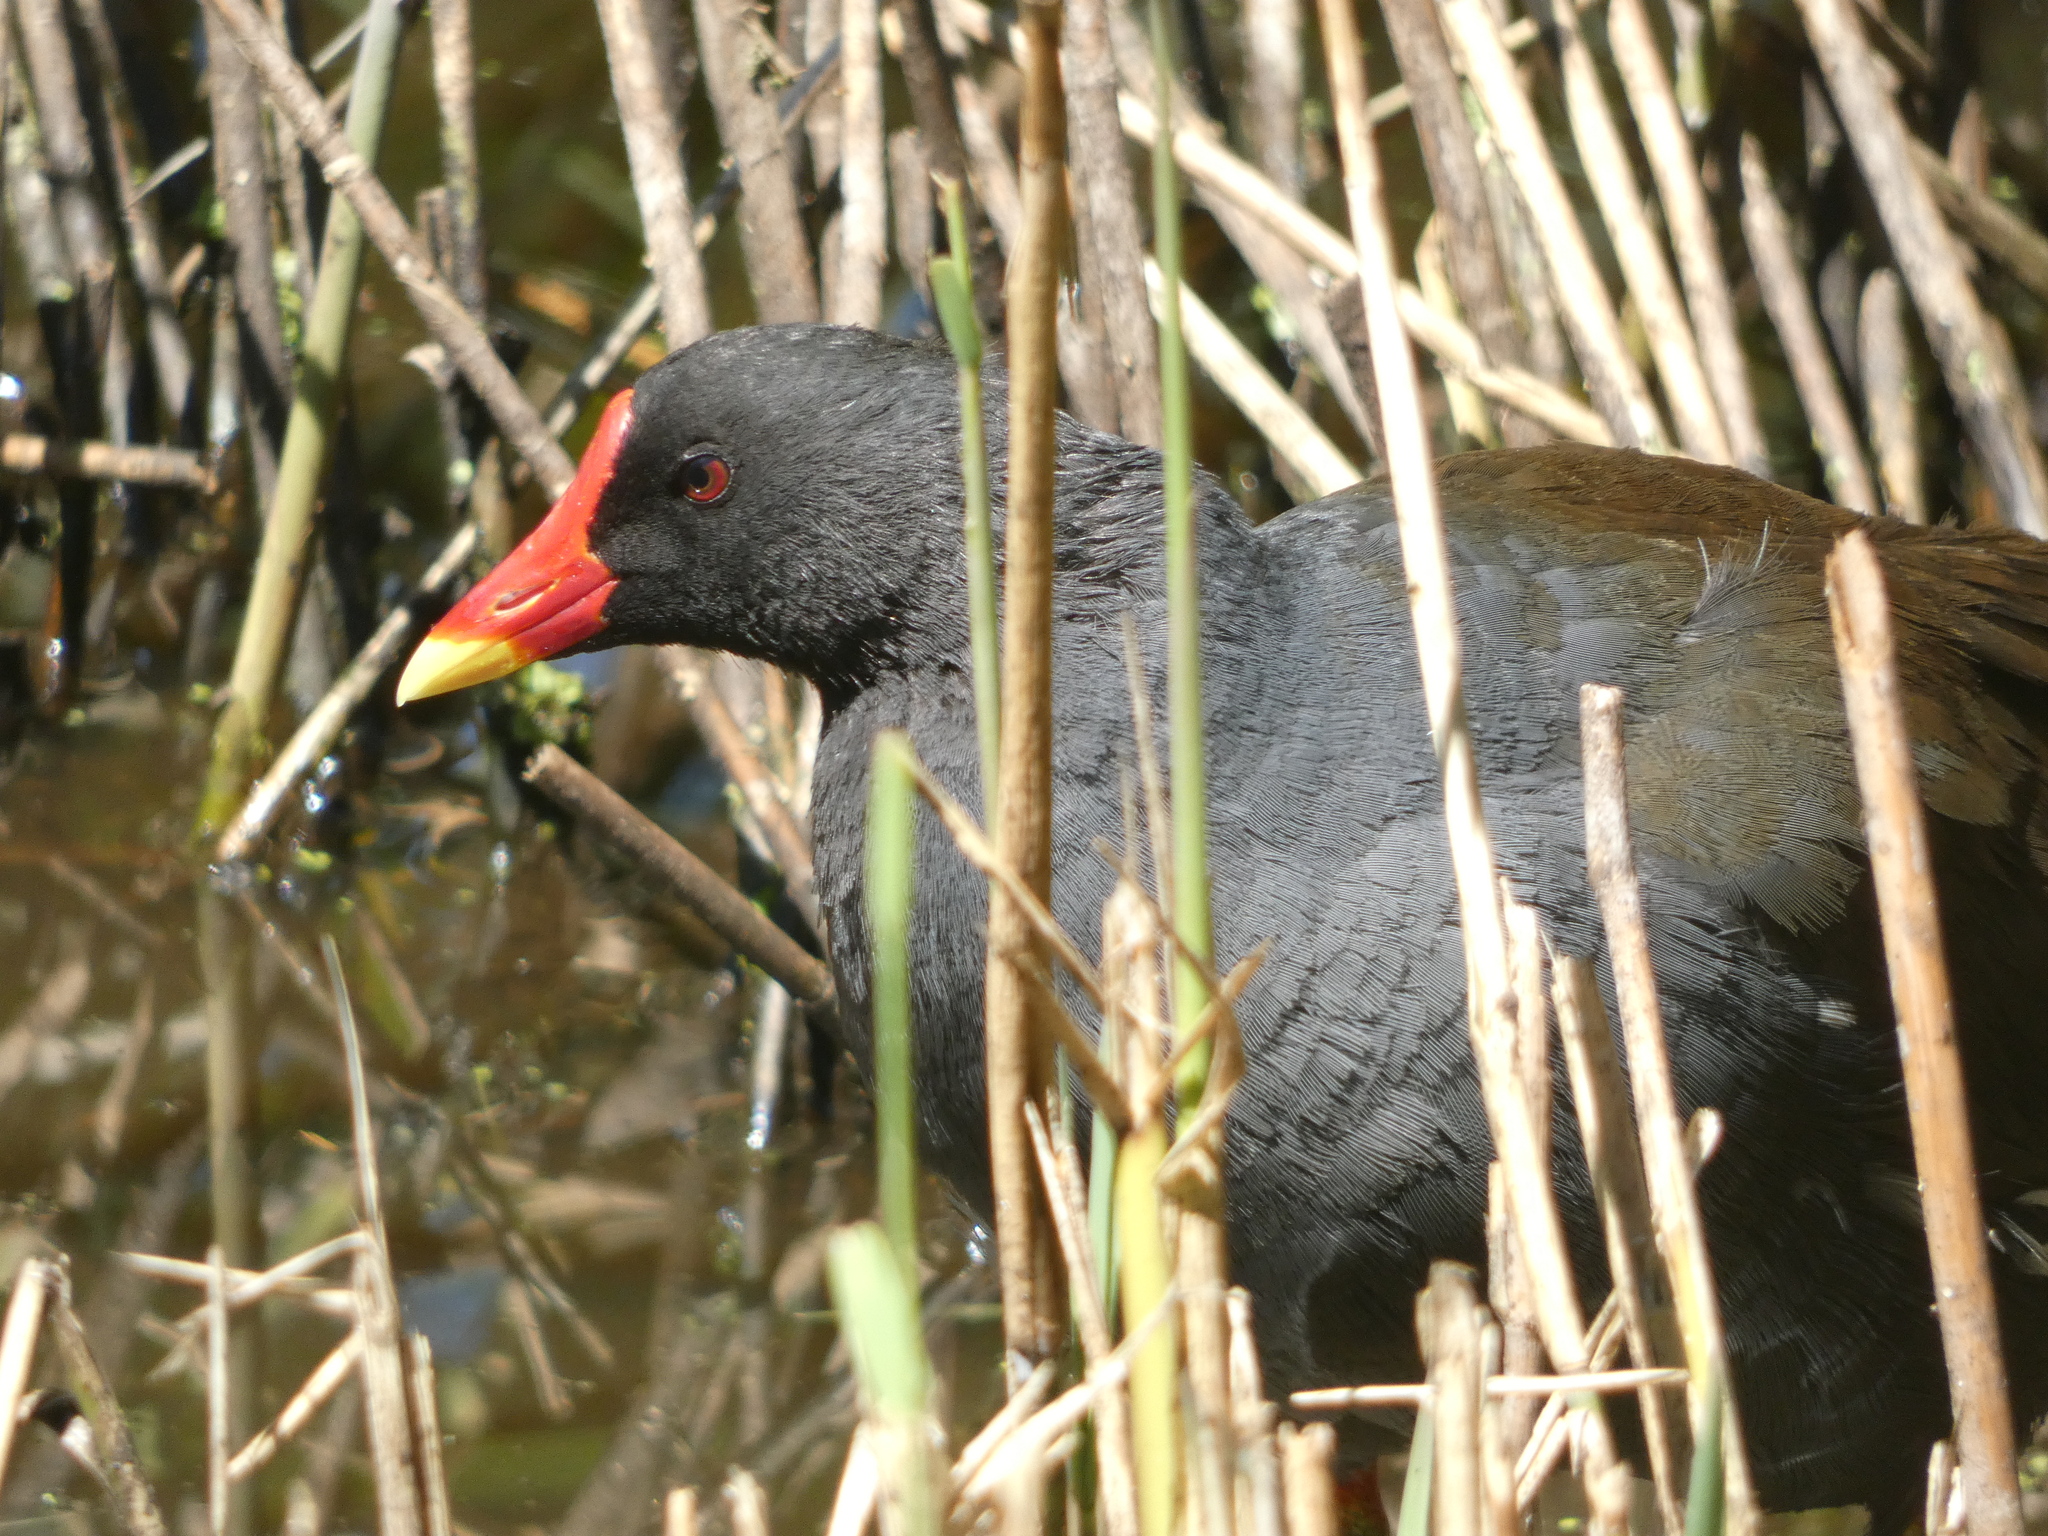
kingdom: Animalia
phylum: Chordata
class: Aves
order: Gruiformes
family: Rallidae
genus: Gallinula
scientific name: Gallinula chloropus
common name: Common moorhen
